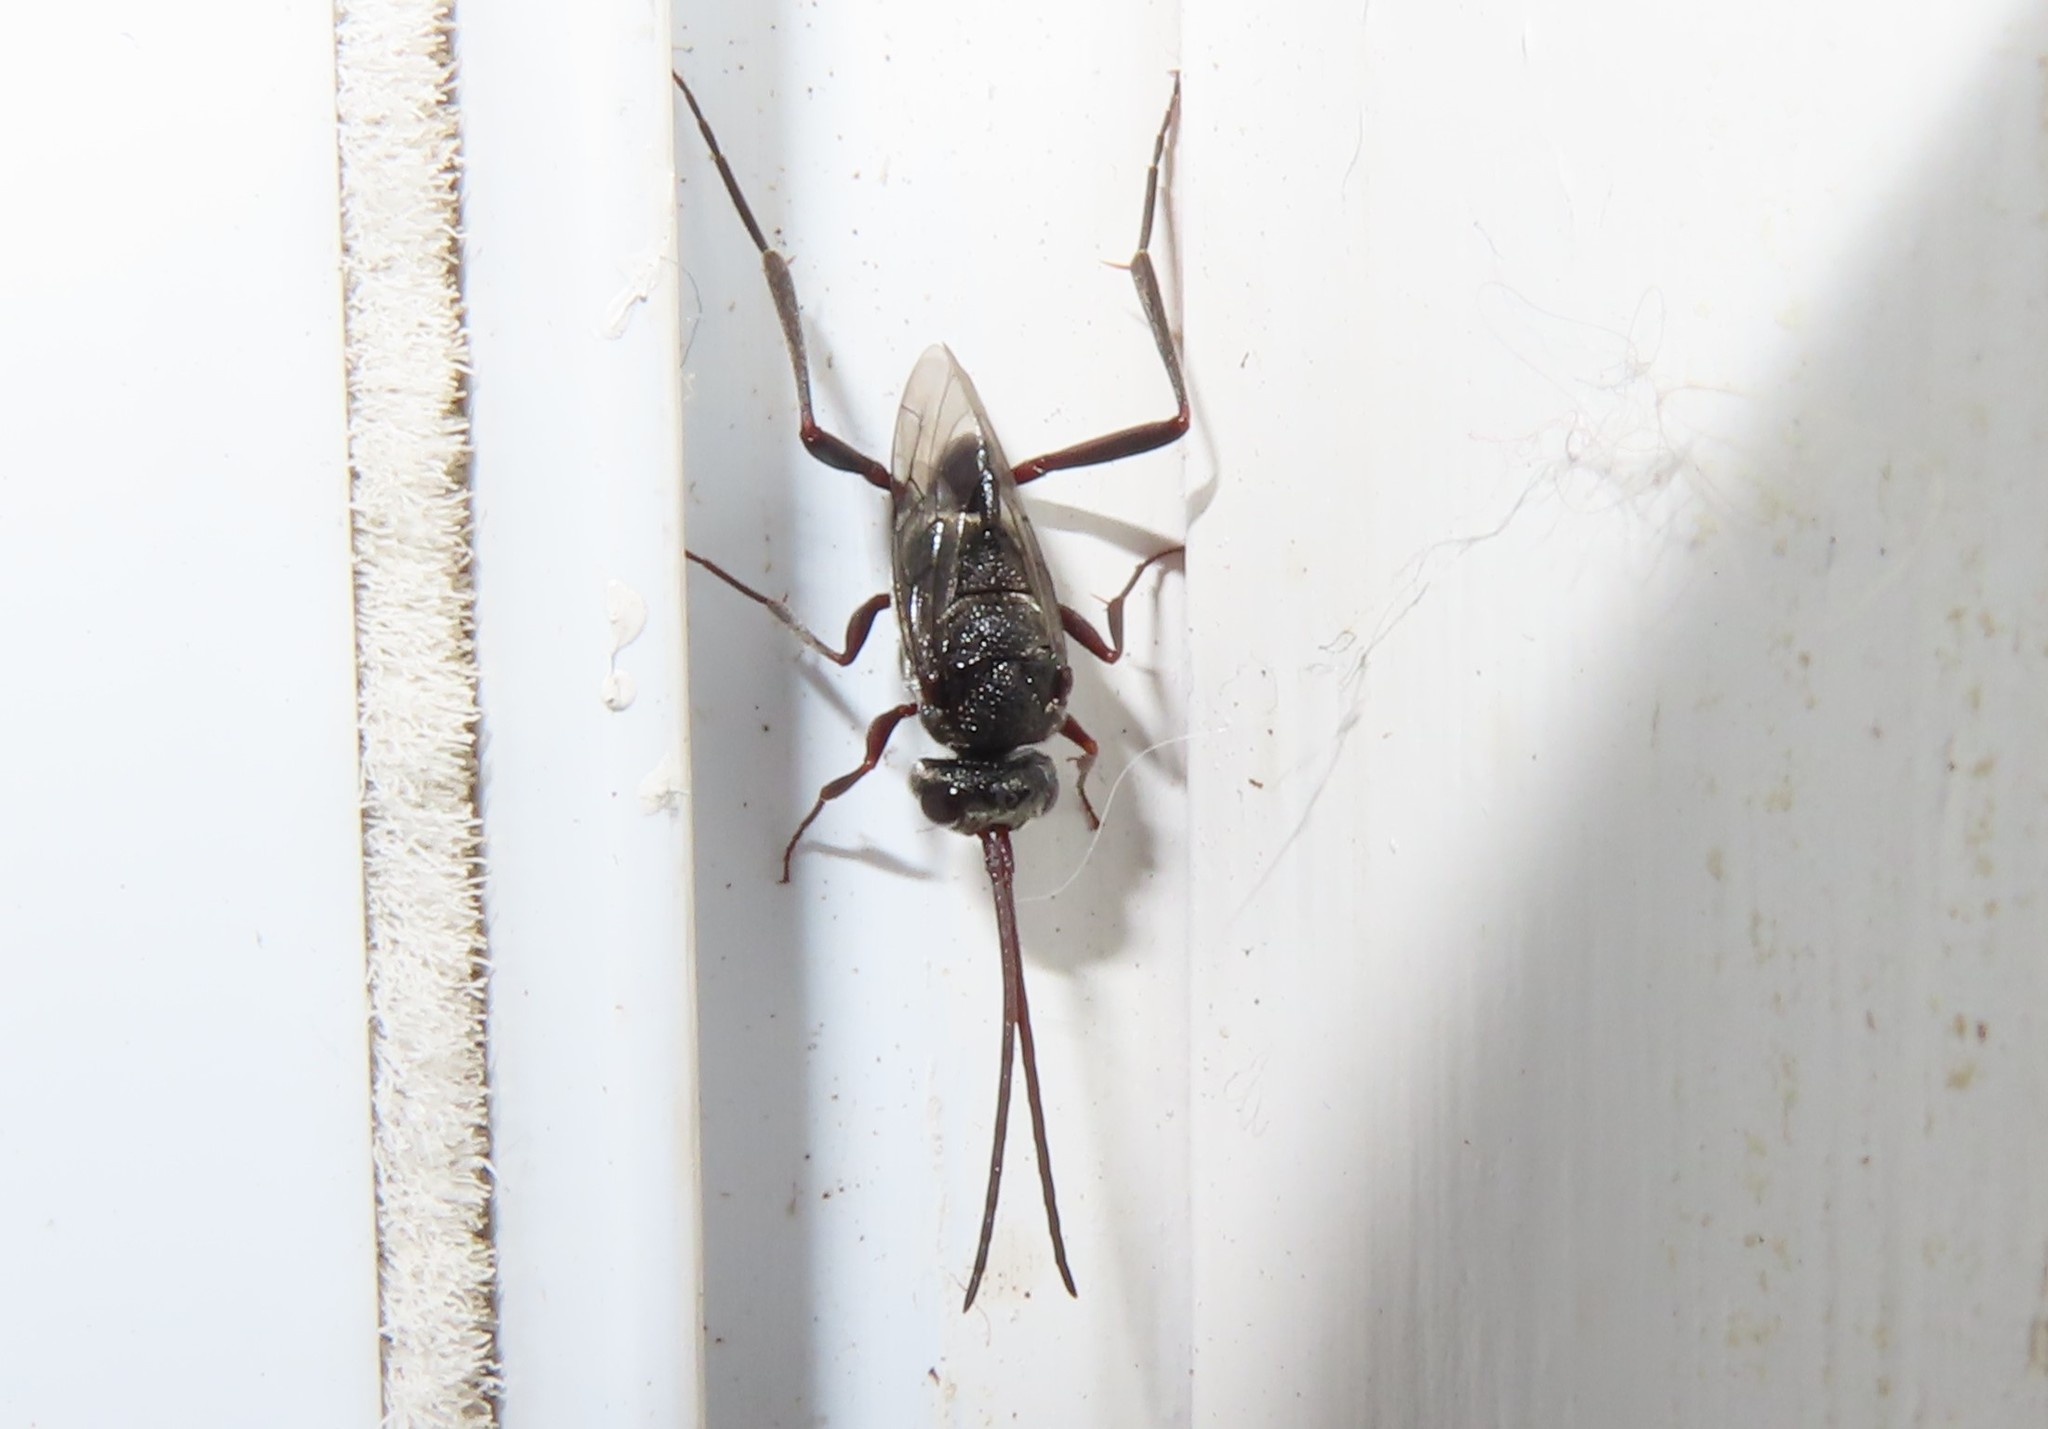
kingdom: Animalia
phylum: Arthropoda
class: Insecta
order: Hymenoptera
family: Evaniidae
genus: Prosevania
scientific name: Prosevania fuscipes
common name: Ensign wasp
